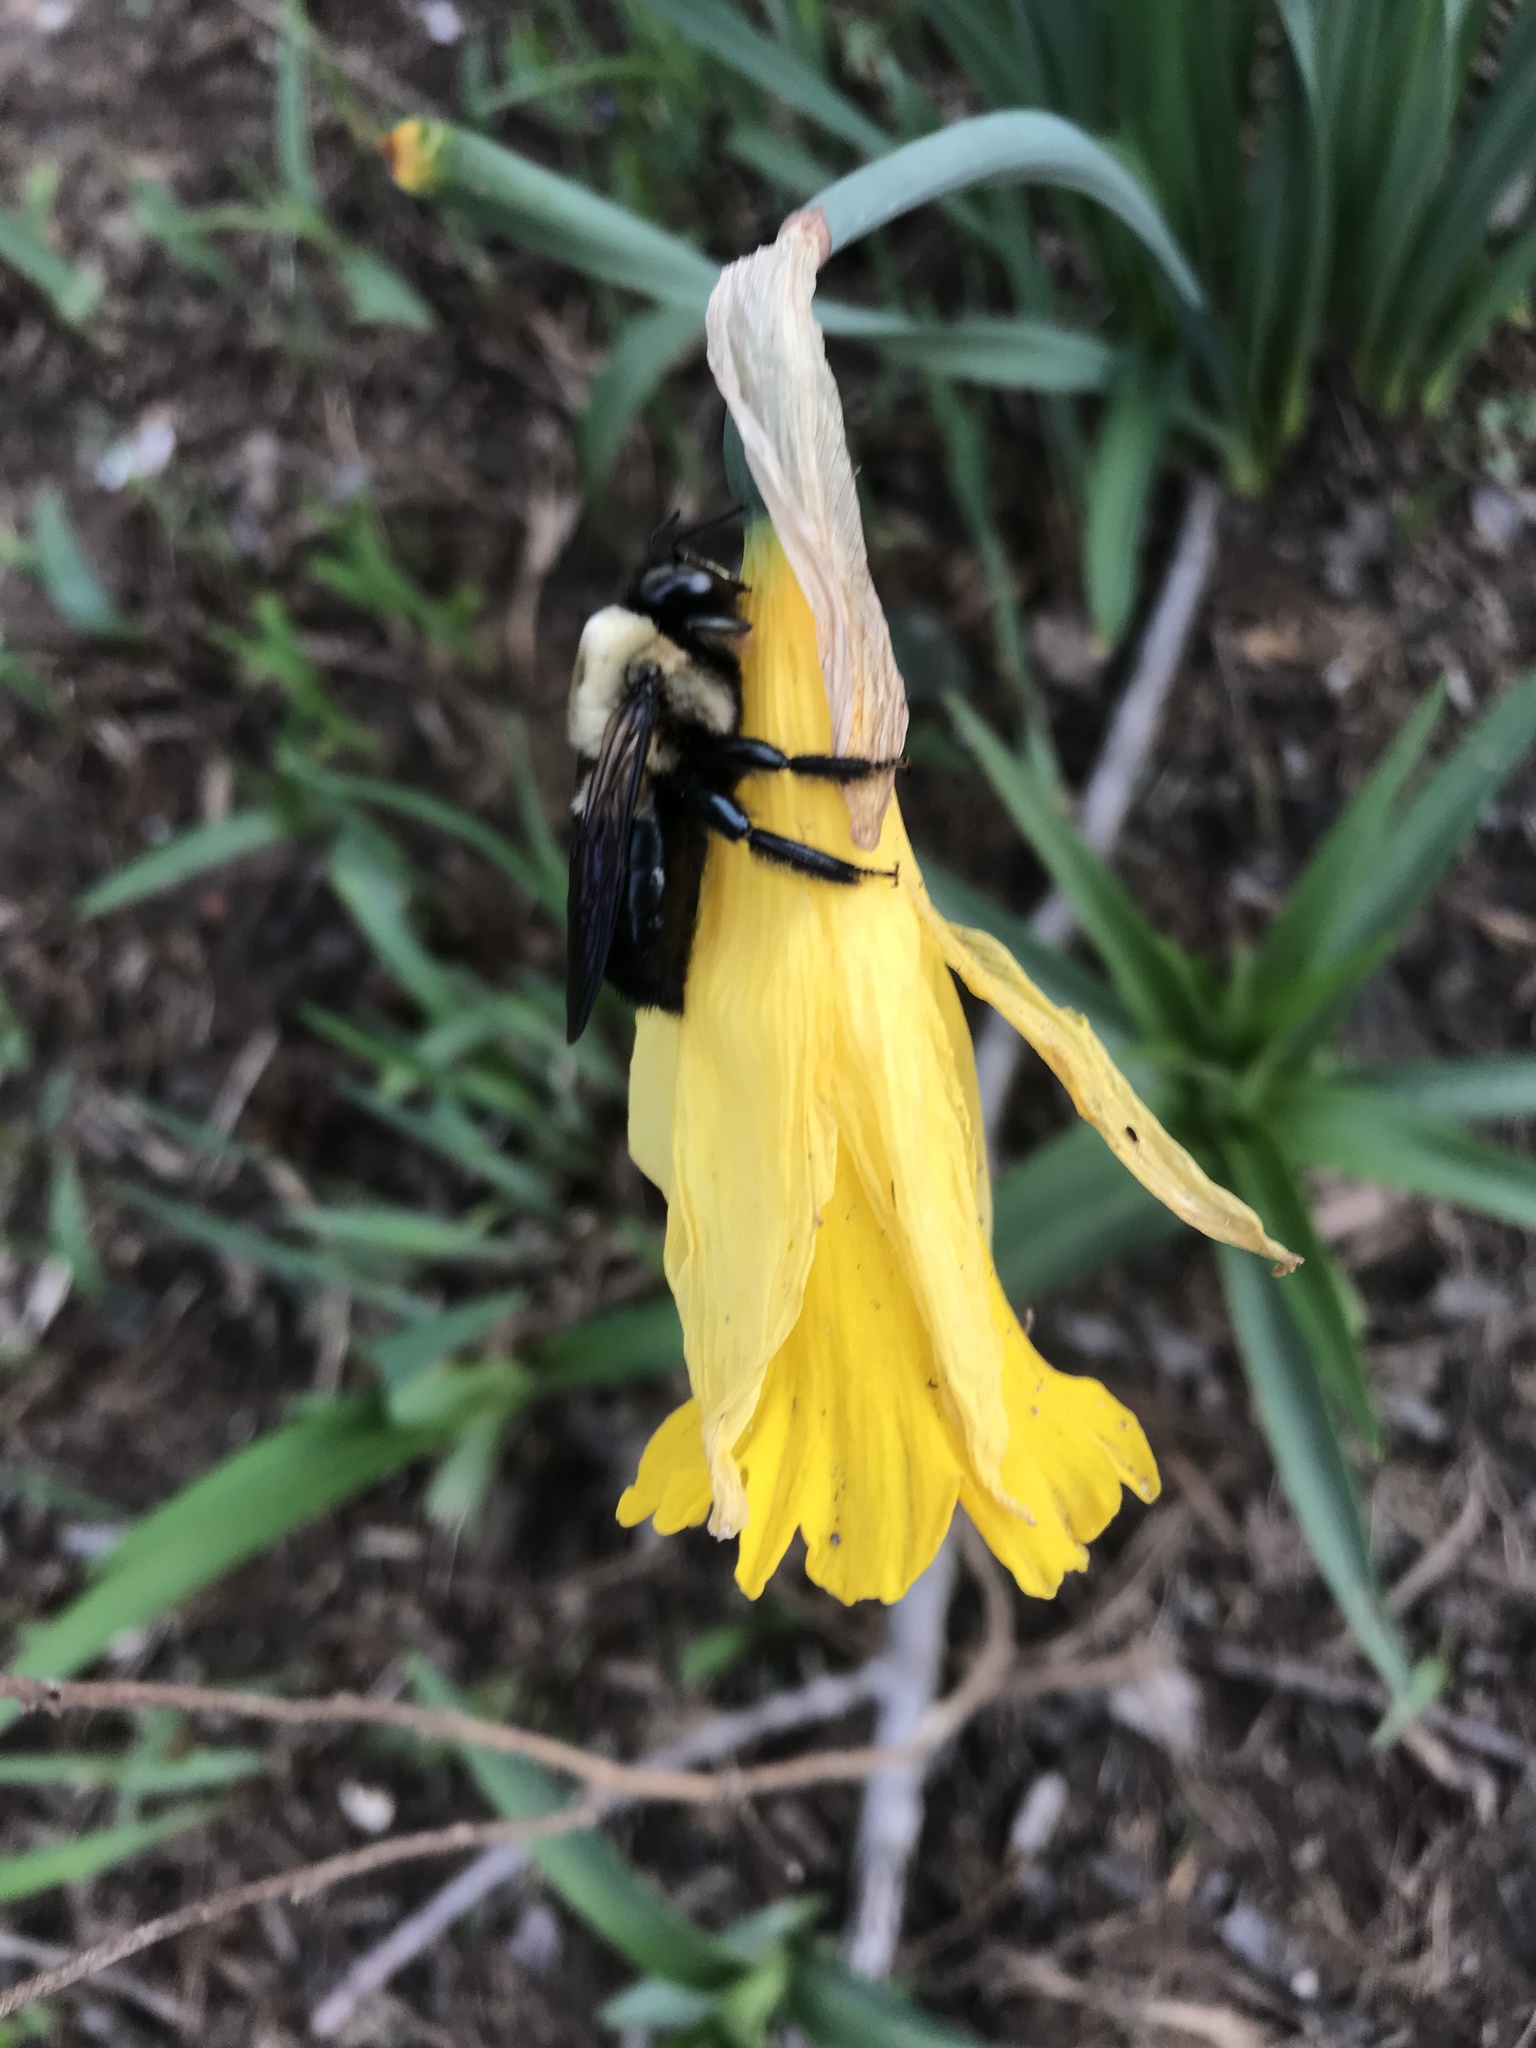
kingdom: Animalia
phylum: Arthropoda
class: Insecta
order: Hymenoptera
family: Apidae
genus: Xylocopa
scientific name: Xylocopa virginica
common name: Carpenter bee
